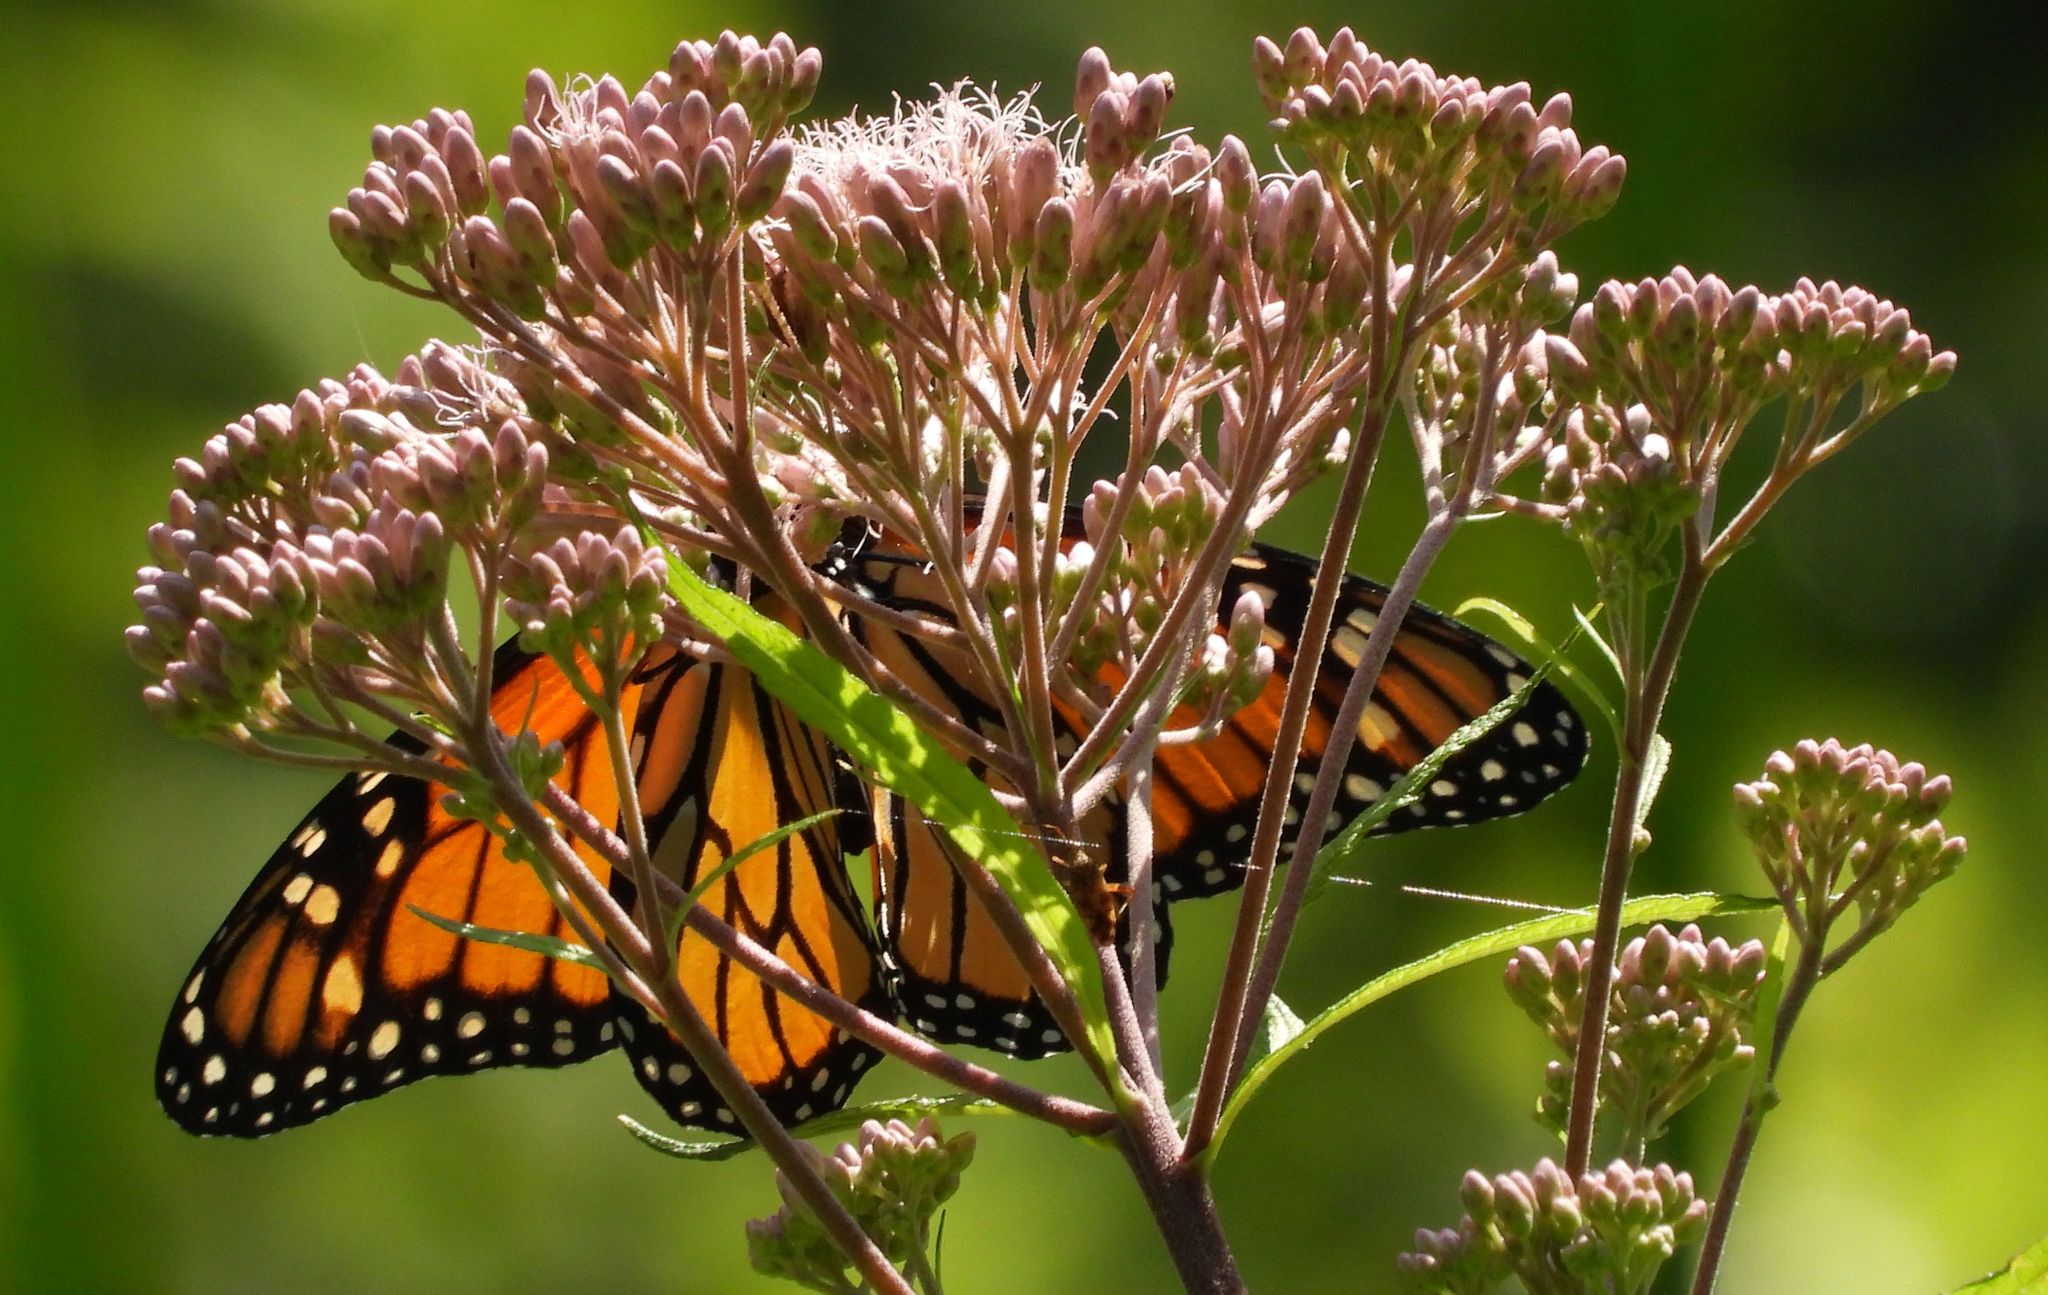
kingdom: Animalia
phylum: Arthropoda
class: Insecta
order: Lepidoptera
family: Nymphalidae
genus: Danaus
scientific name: Danaus plexippus
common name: Monarch
